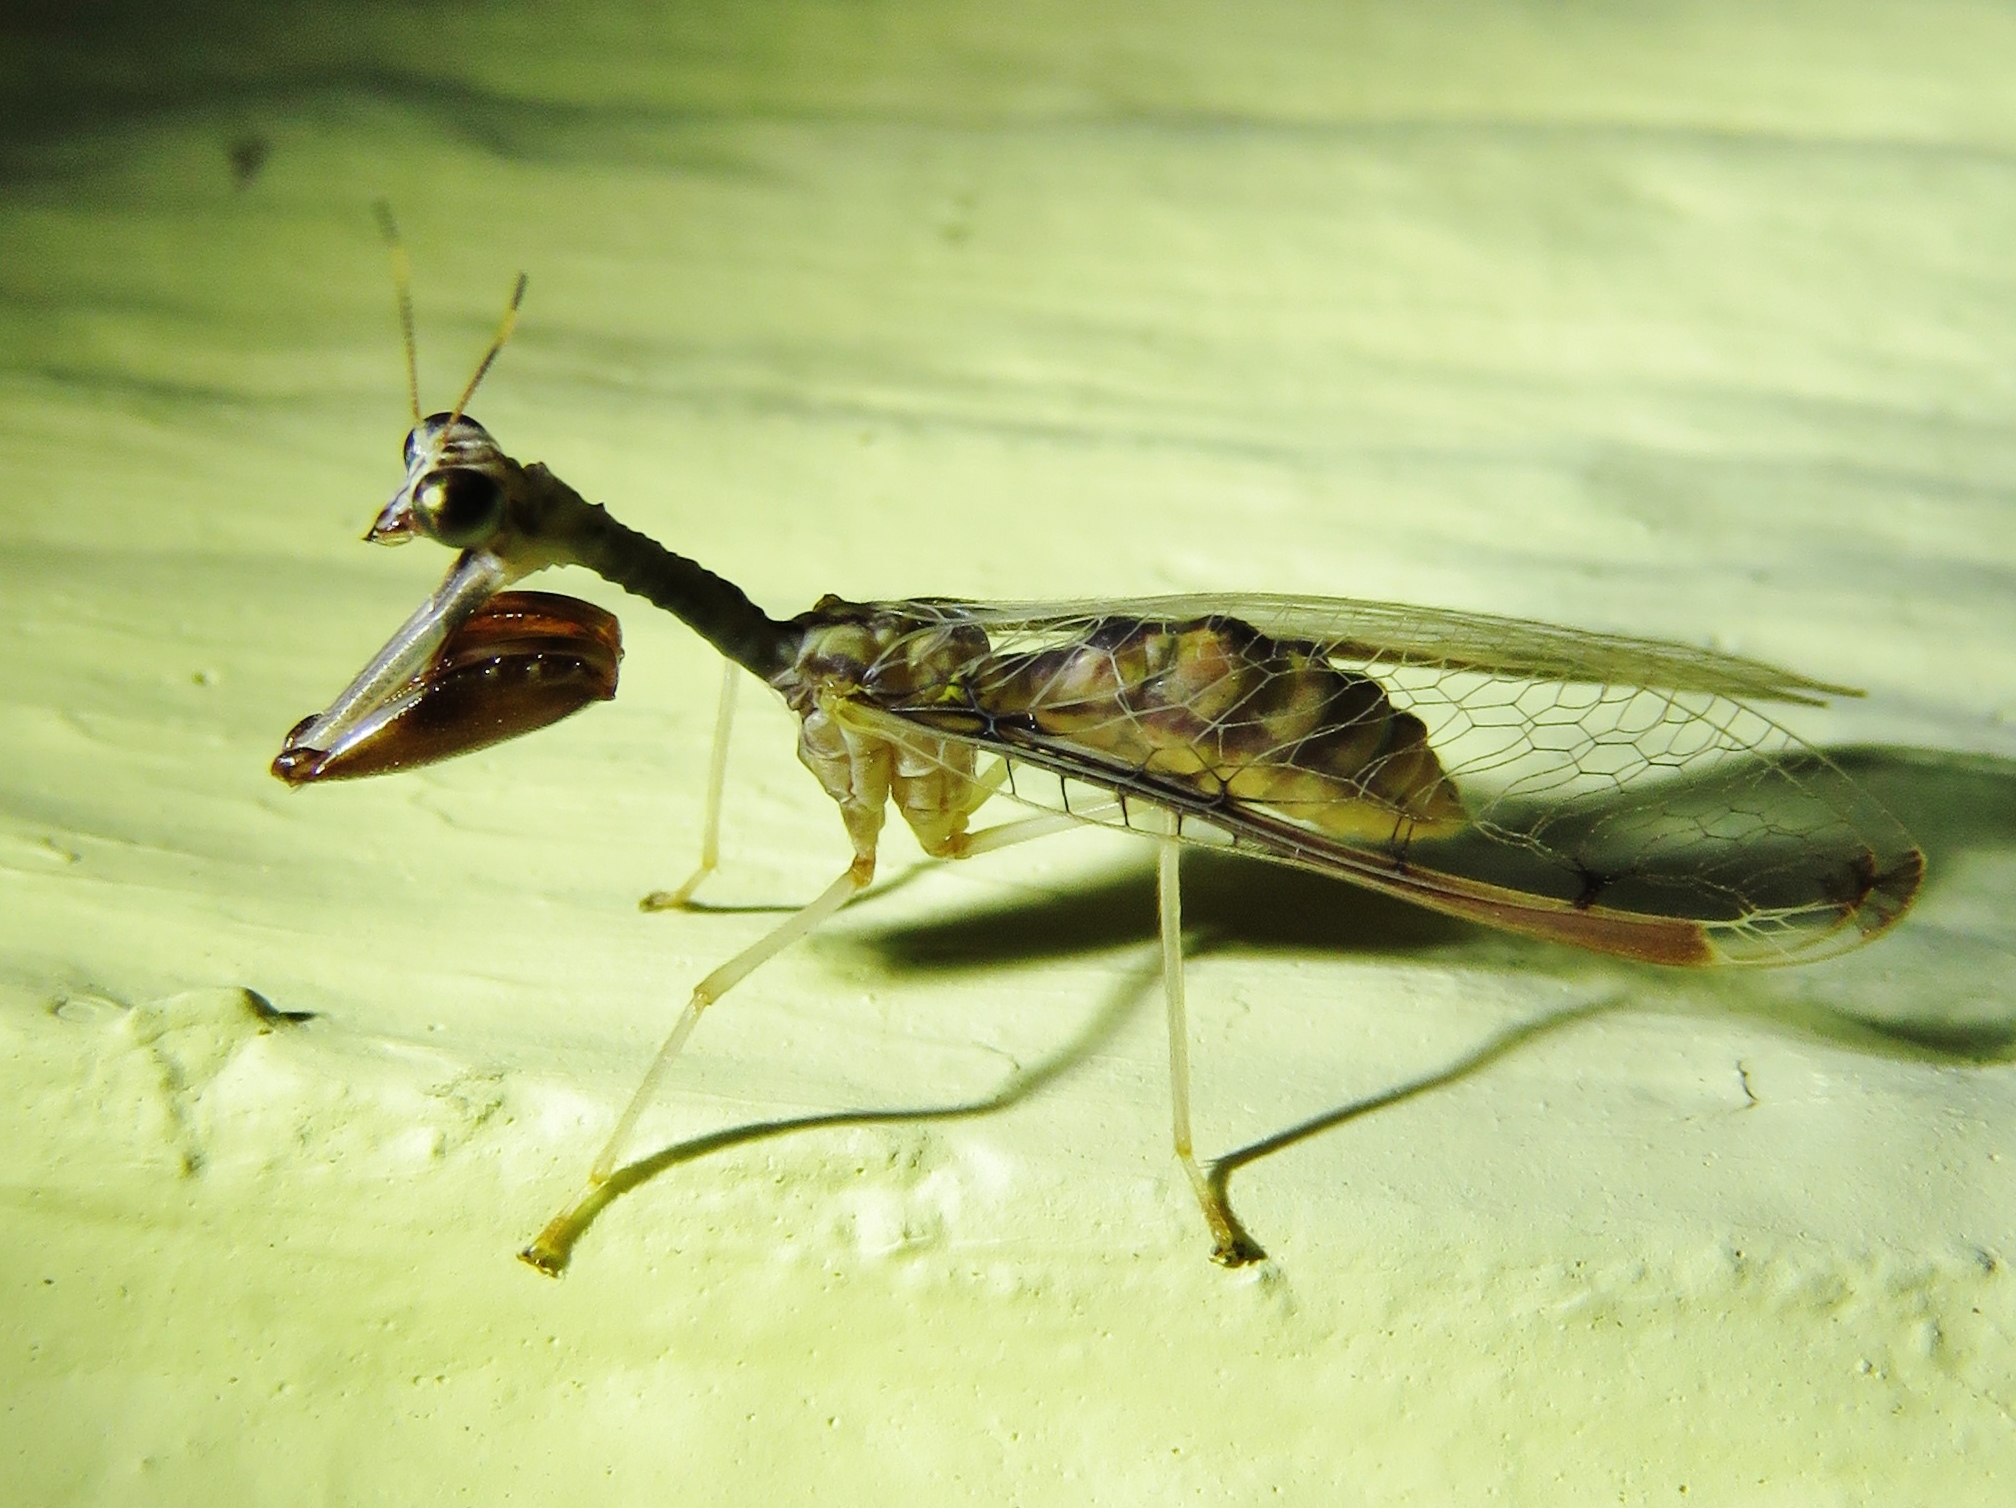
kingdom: Animalia
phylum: Arthropoda
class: Insecta
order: Neuroptera
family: Mantispidae
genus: Dicromantispa
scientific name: Dicromantispa interrupta
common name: Four-spotted mantidfly
